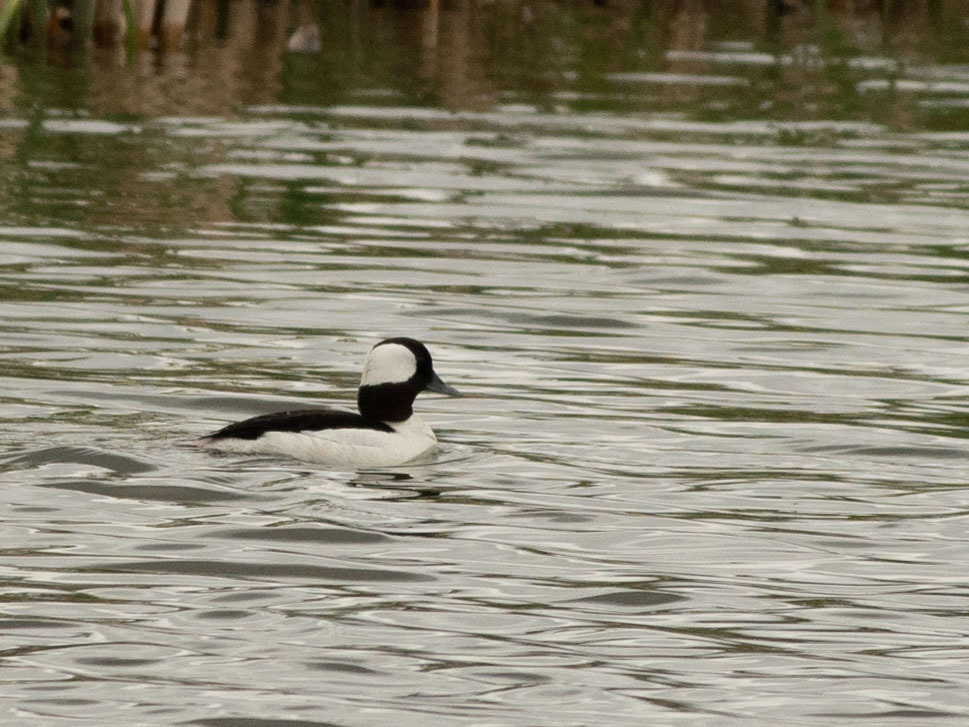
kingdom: Animalia
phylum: Chordata
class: Aves
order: Anseriformes
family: Anatidae
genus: Bucephala
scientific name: Bucephala albeola
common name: Bufflehead
